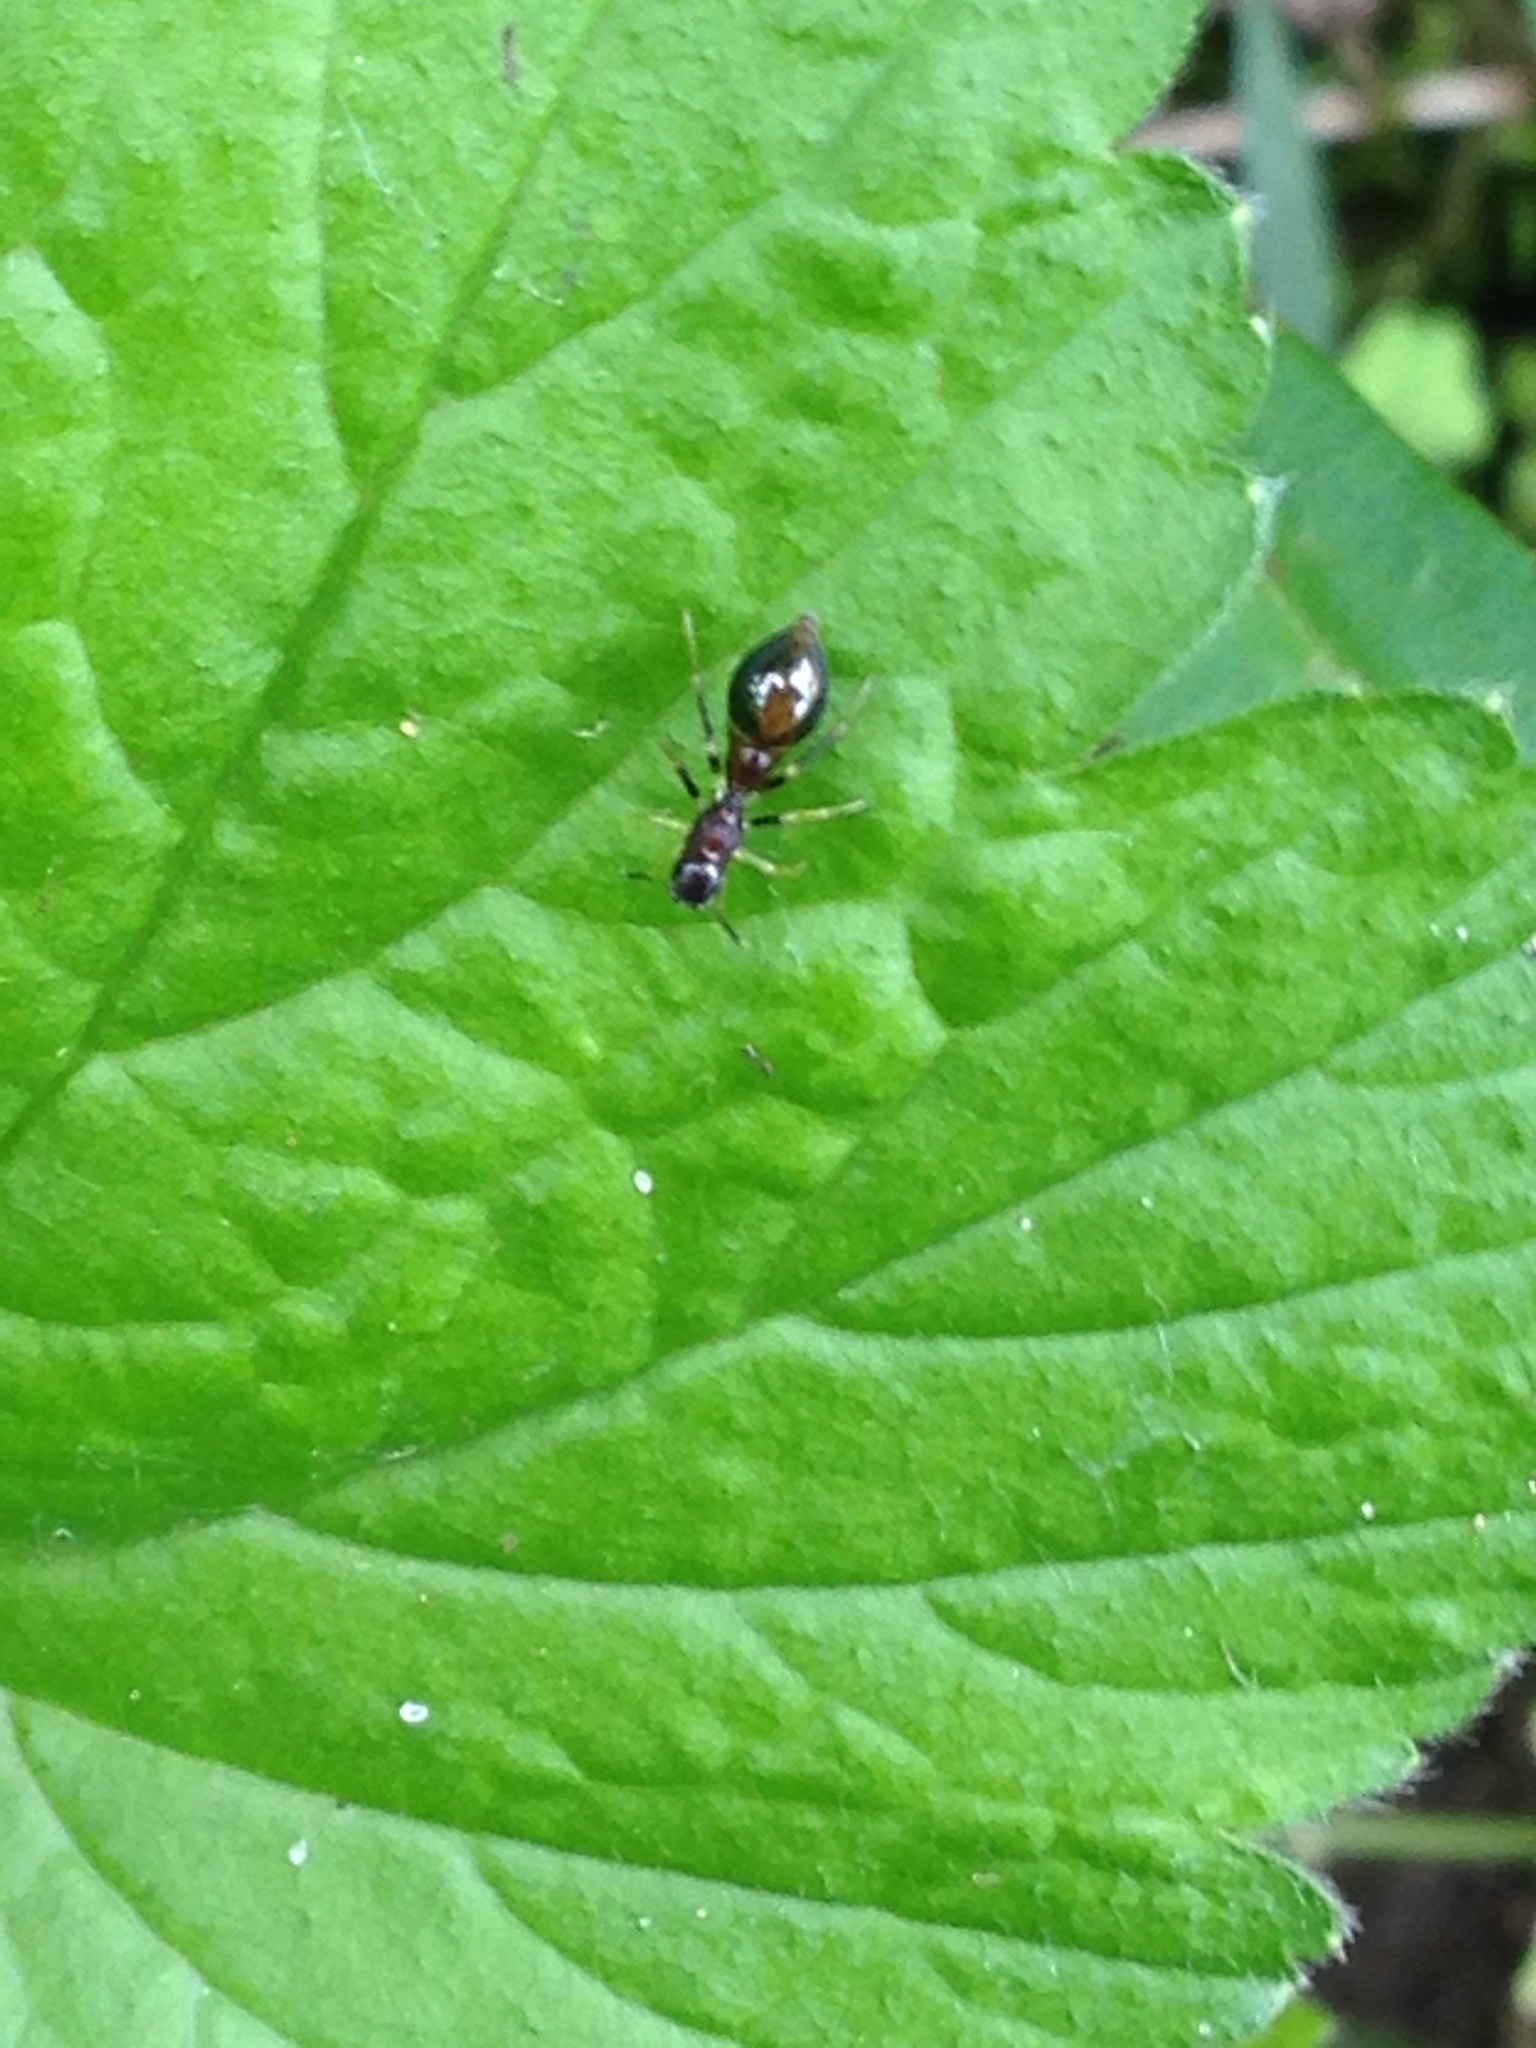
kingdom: Animalia
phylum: Arthropoda
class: Arachnida
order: Araneae
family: Salticidae
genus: Synemosyna
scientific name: Synemosyna formica
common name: Slender ant-mimic jumping spider
